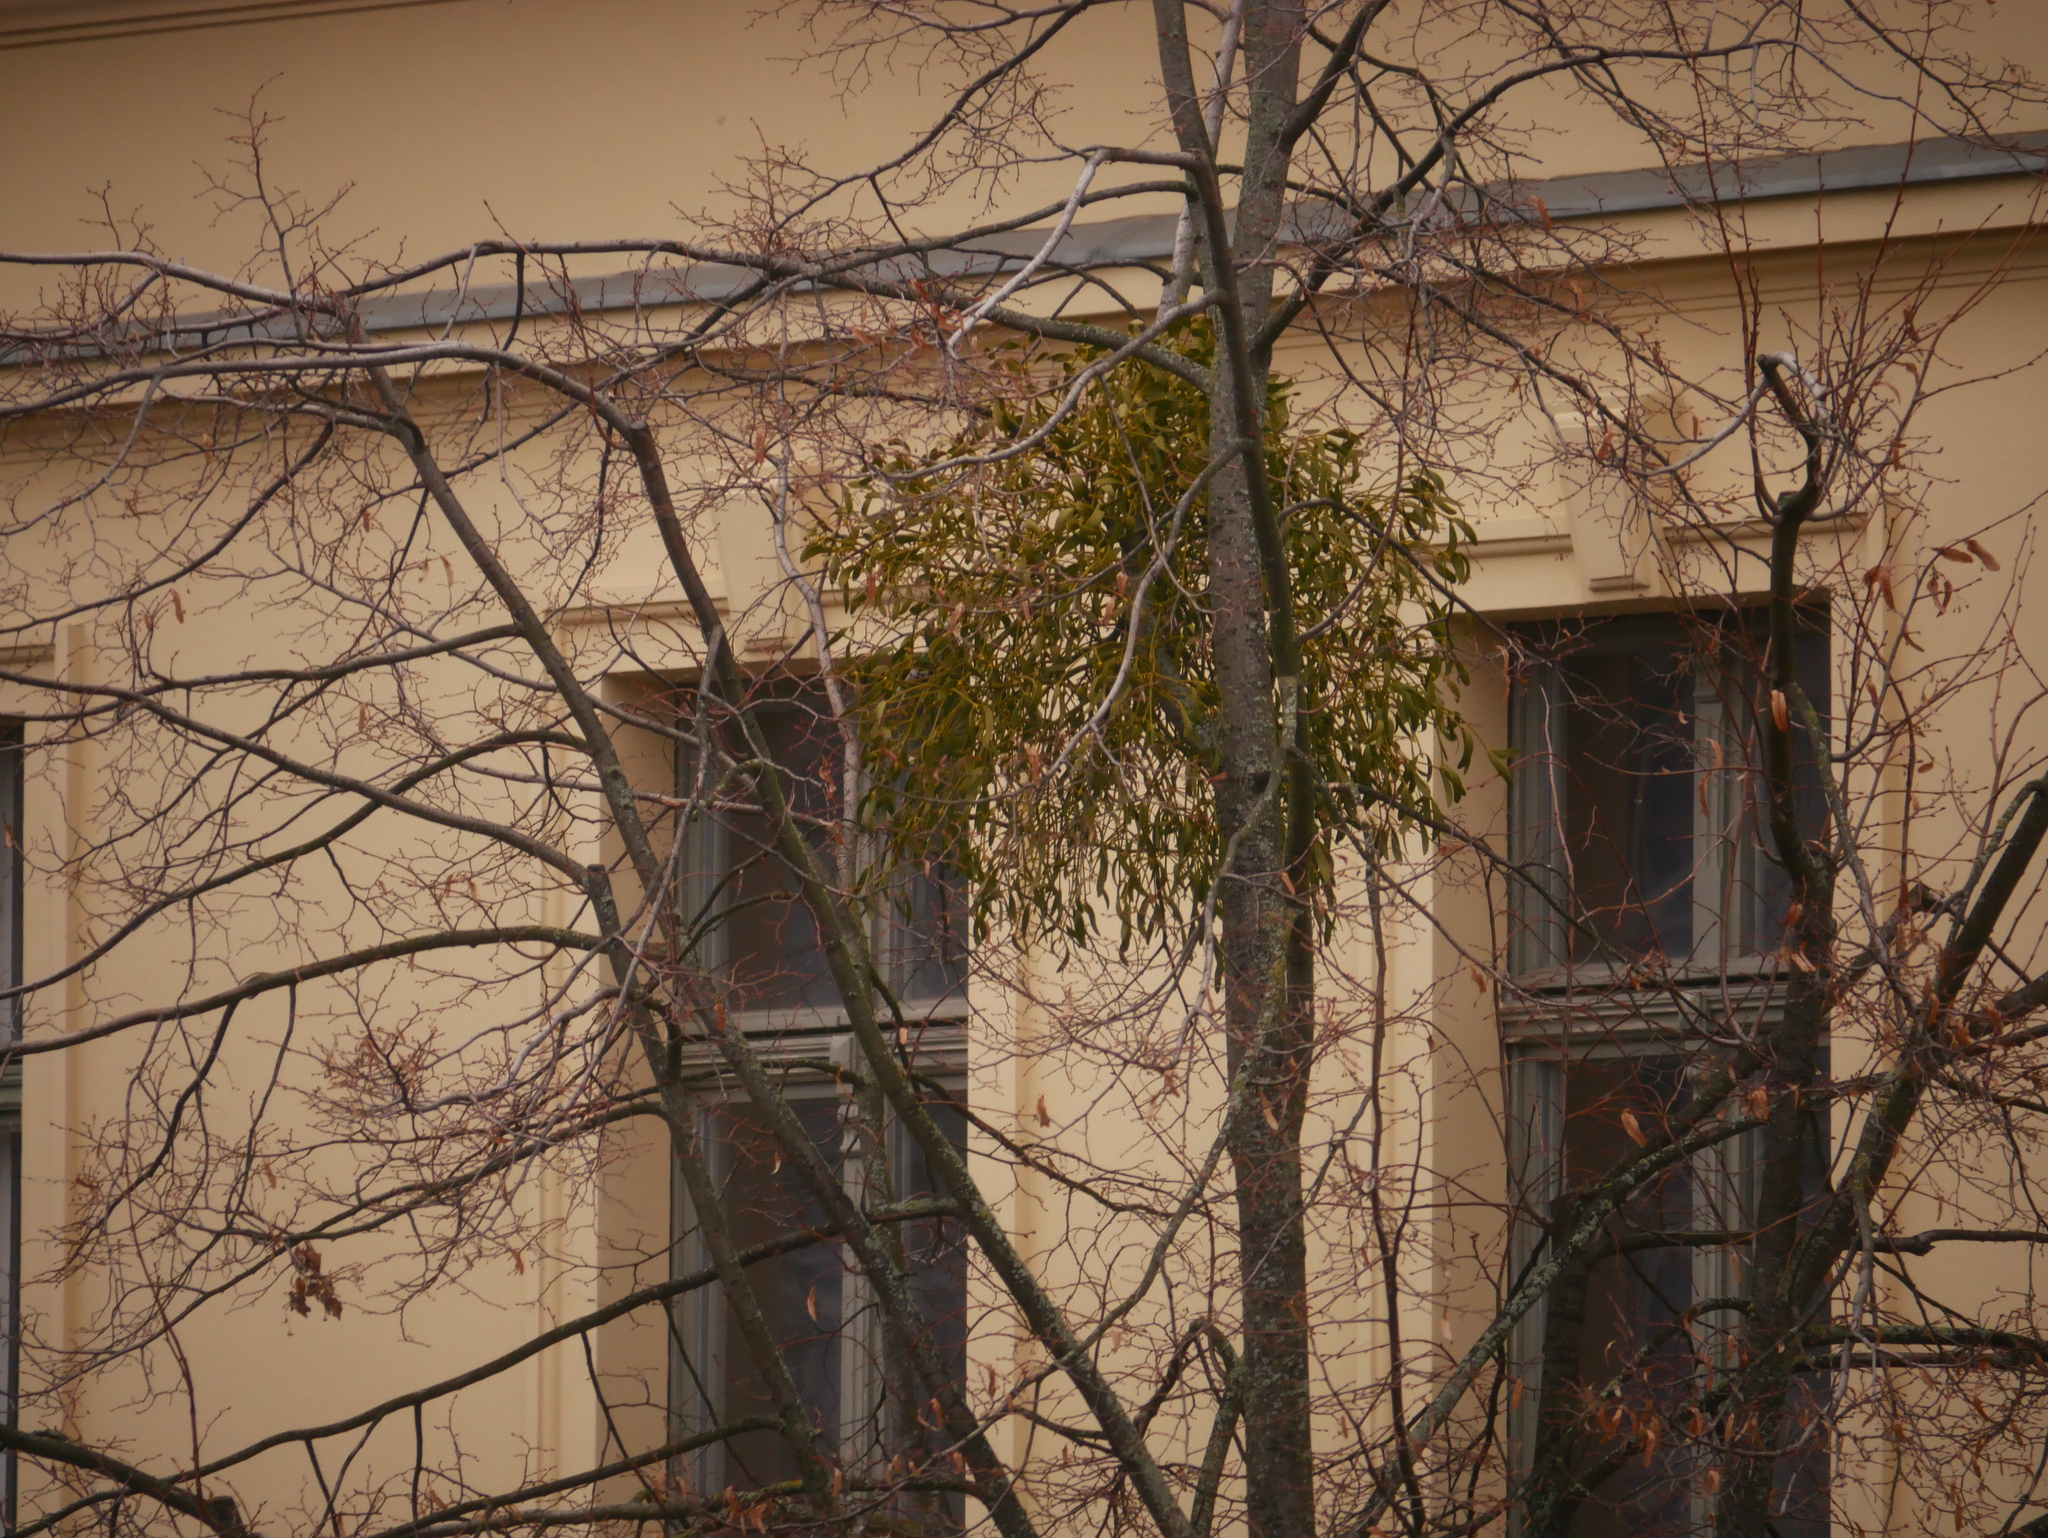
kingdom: Plantae
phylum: Tracheophyta
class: Magnoliopsida
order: Santalales
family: Viscaceae
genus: Viscum
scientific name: Viscum album
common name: Mistletoe
